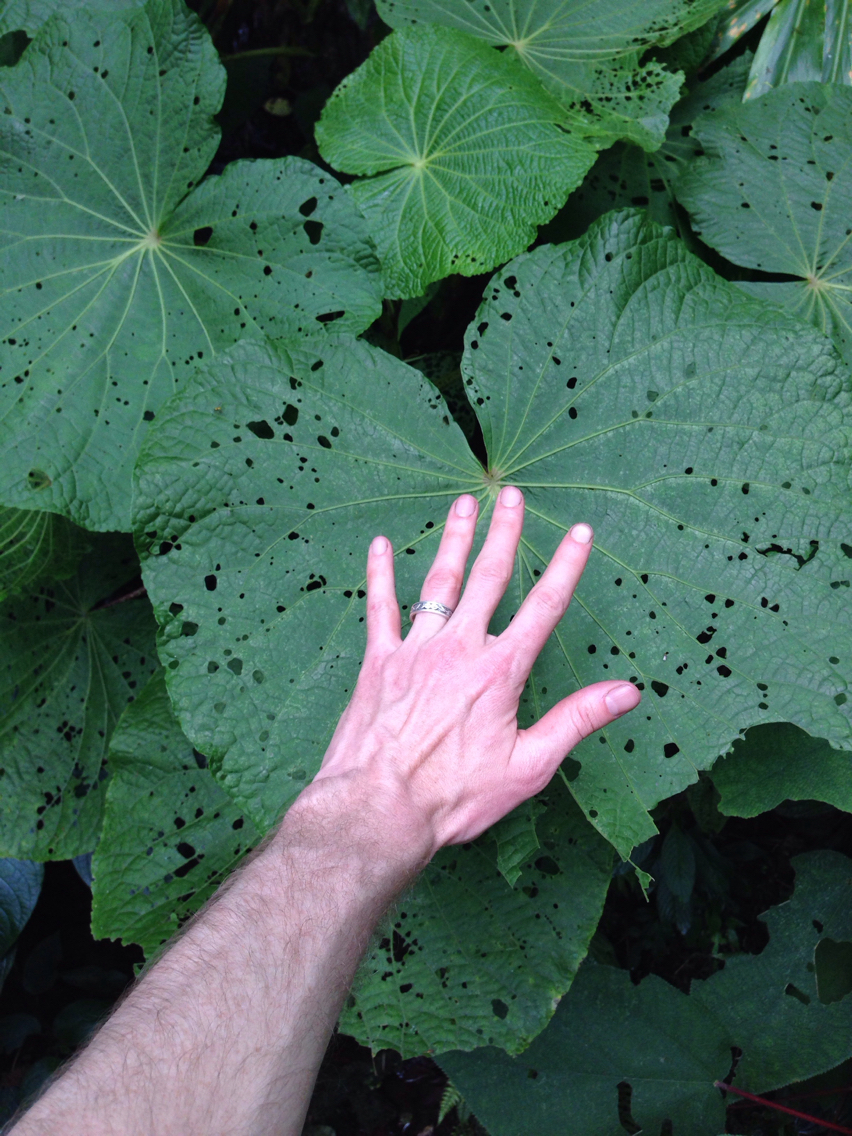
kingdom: Plantae
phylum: Tracheophyta
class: Magnoliopsida
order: Piperales
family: Piperaceae
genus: Piper
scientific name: Piper umbellatum
